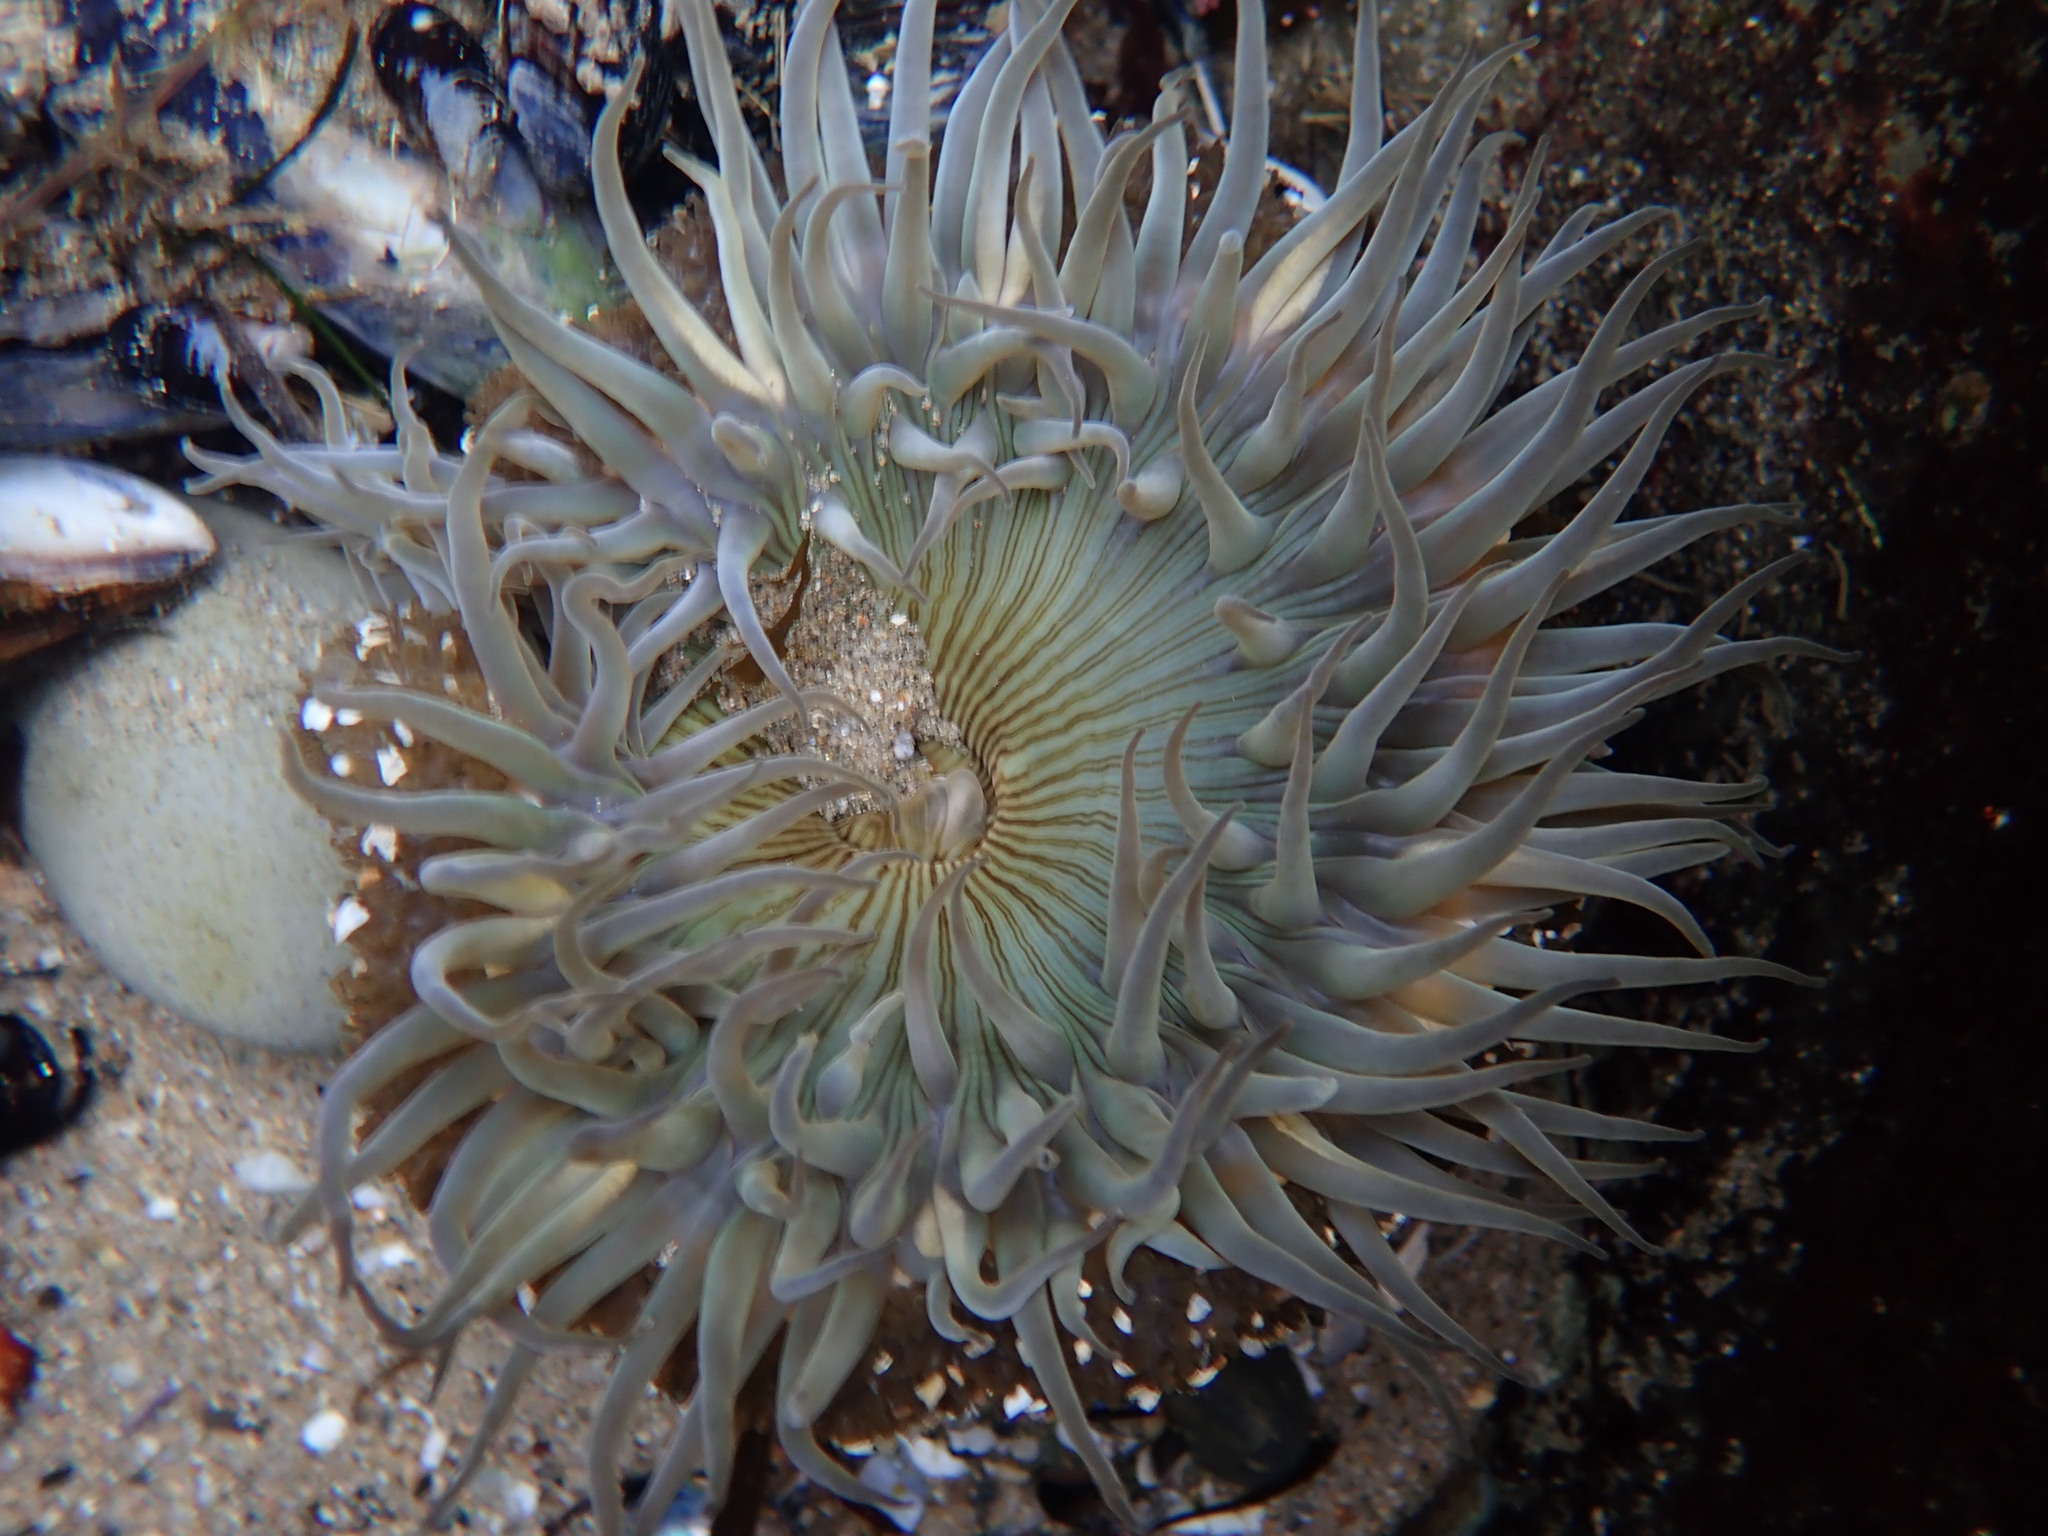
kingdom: Animalia
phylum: Cnidaria
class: Anthozoa
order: Actiniaria
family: Actiniidae
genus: Anthopleura
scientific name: Anthopleura sola
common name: Sun anemone
